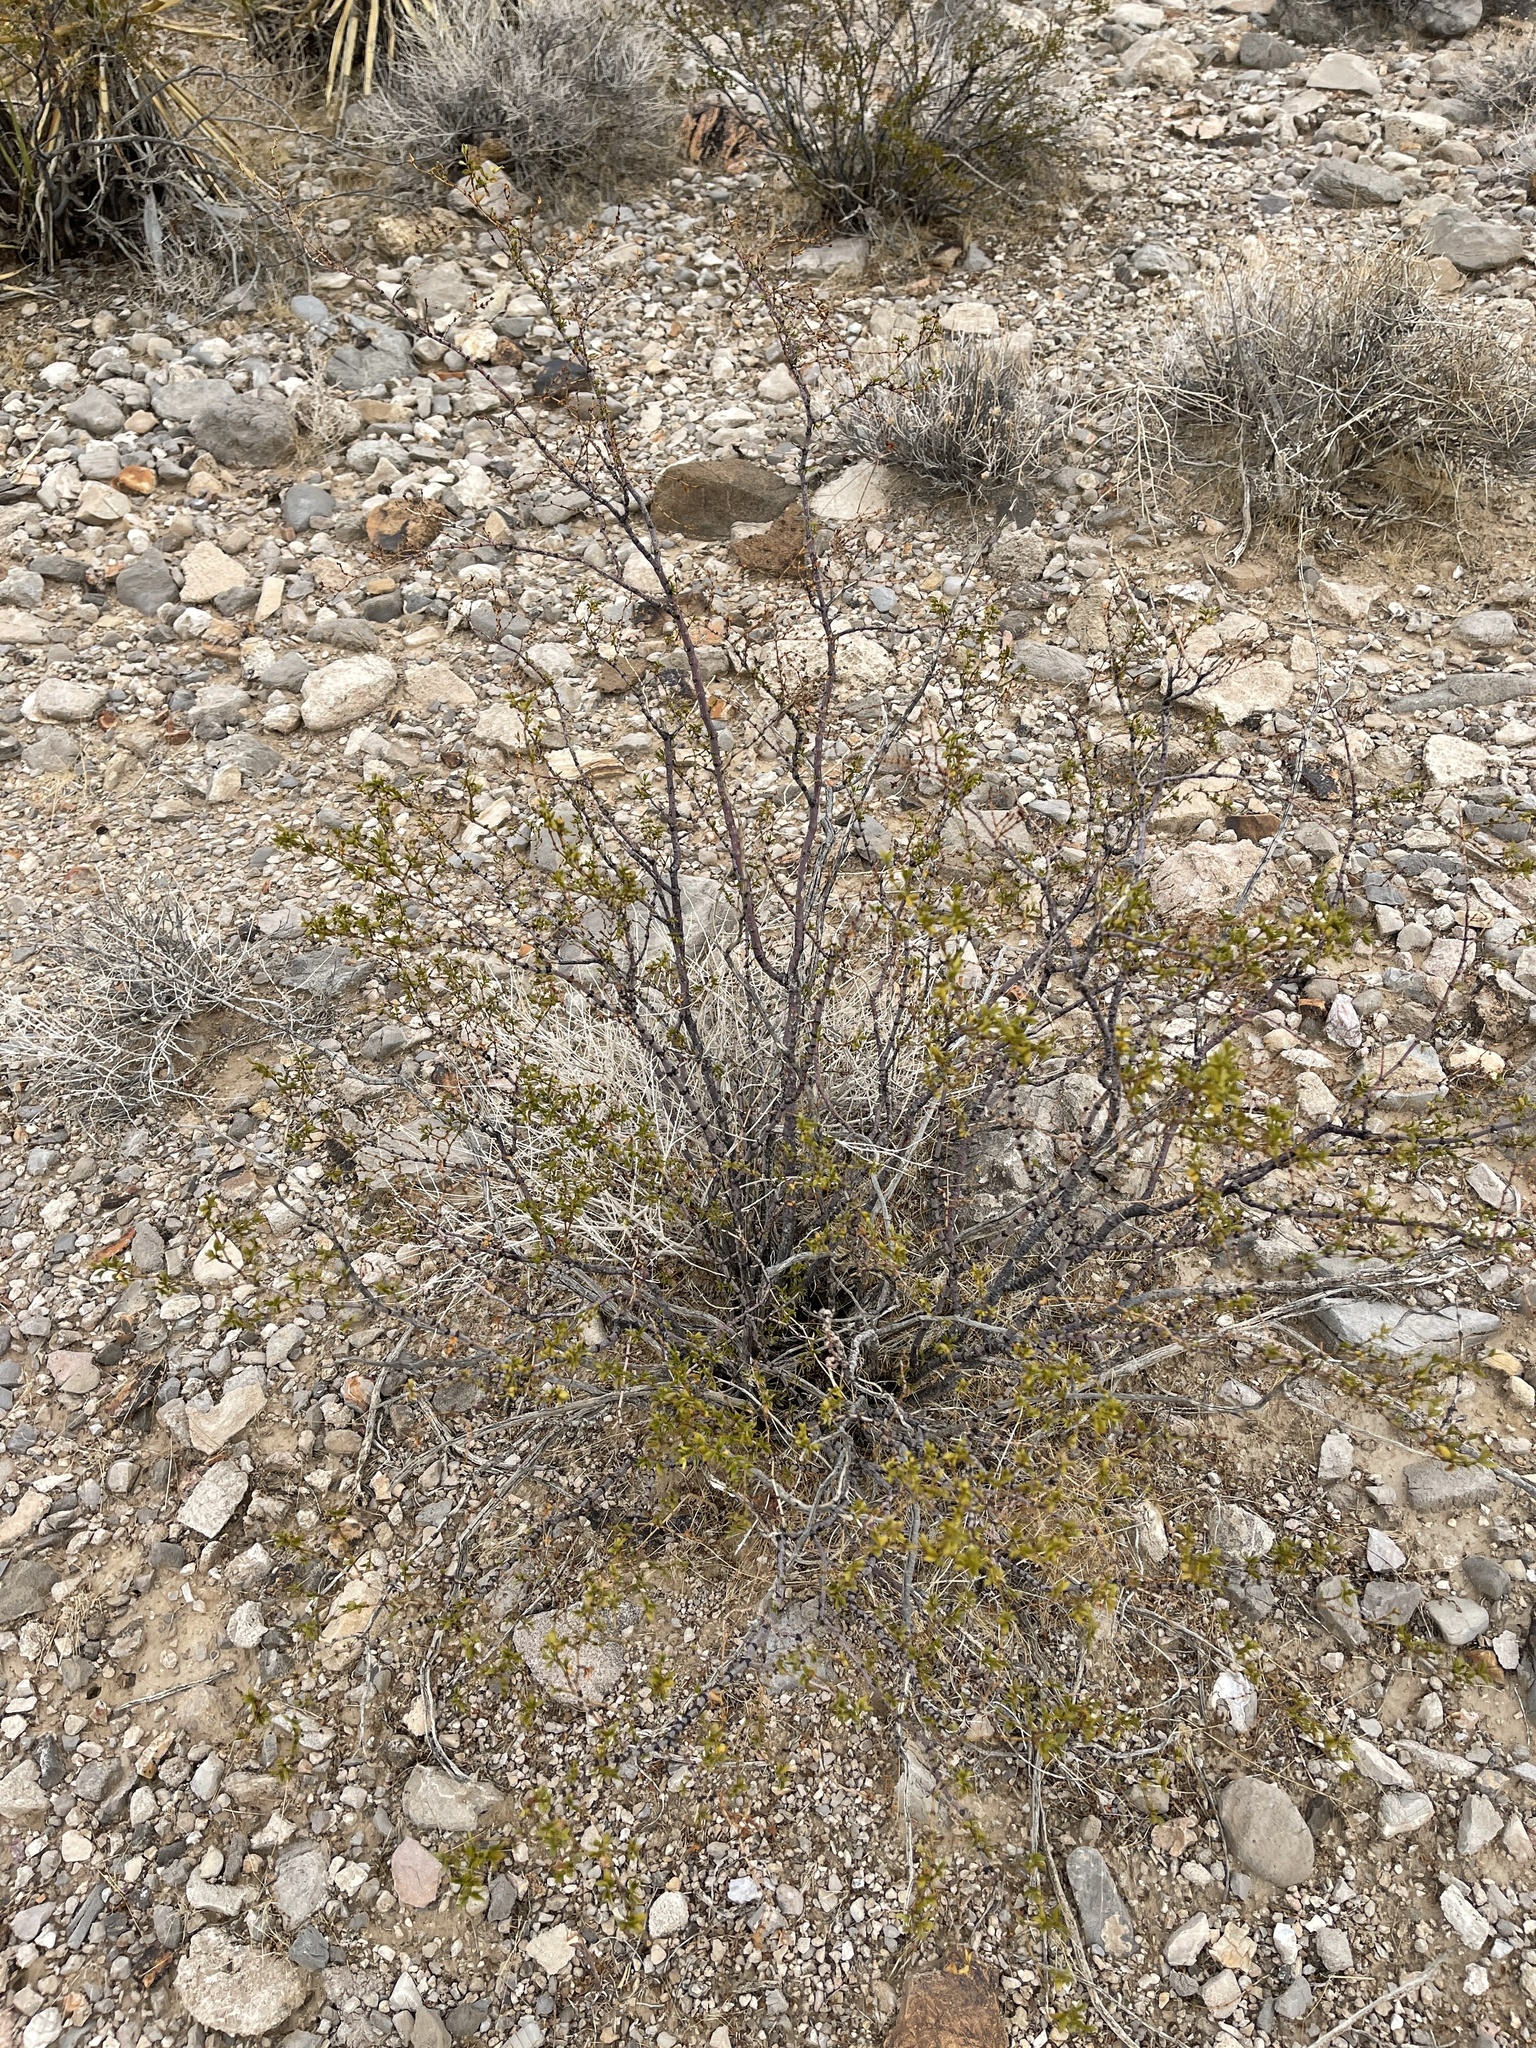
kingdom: Plantae
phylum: Tracheophyta
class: Magnoliopsida
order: Zygophyllales
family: Zygophyllaceae
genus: Larrea
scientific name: Larrea tridentata
